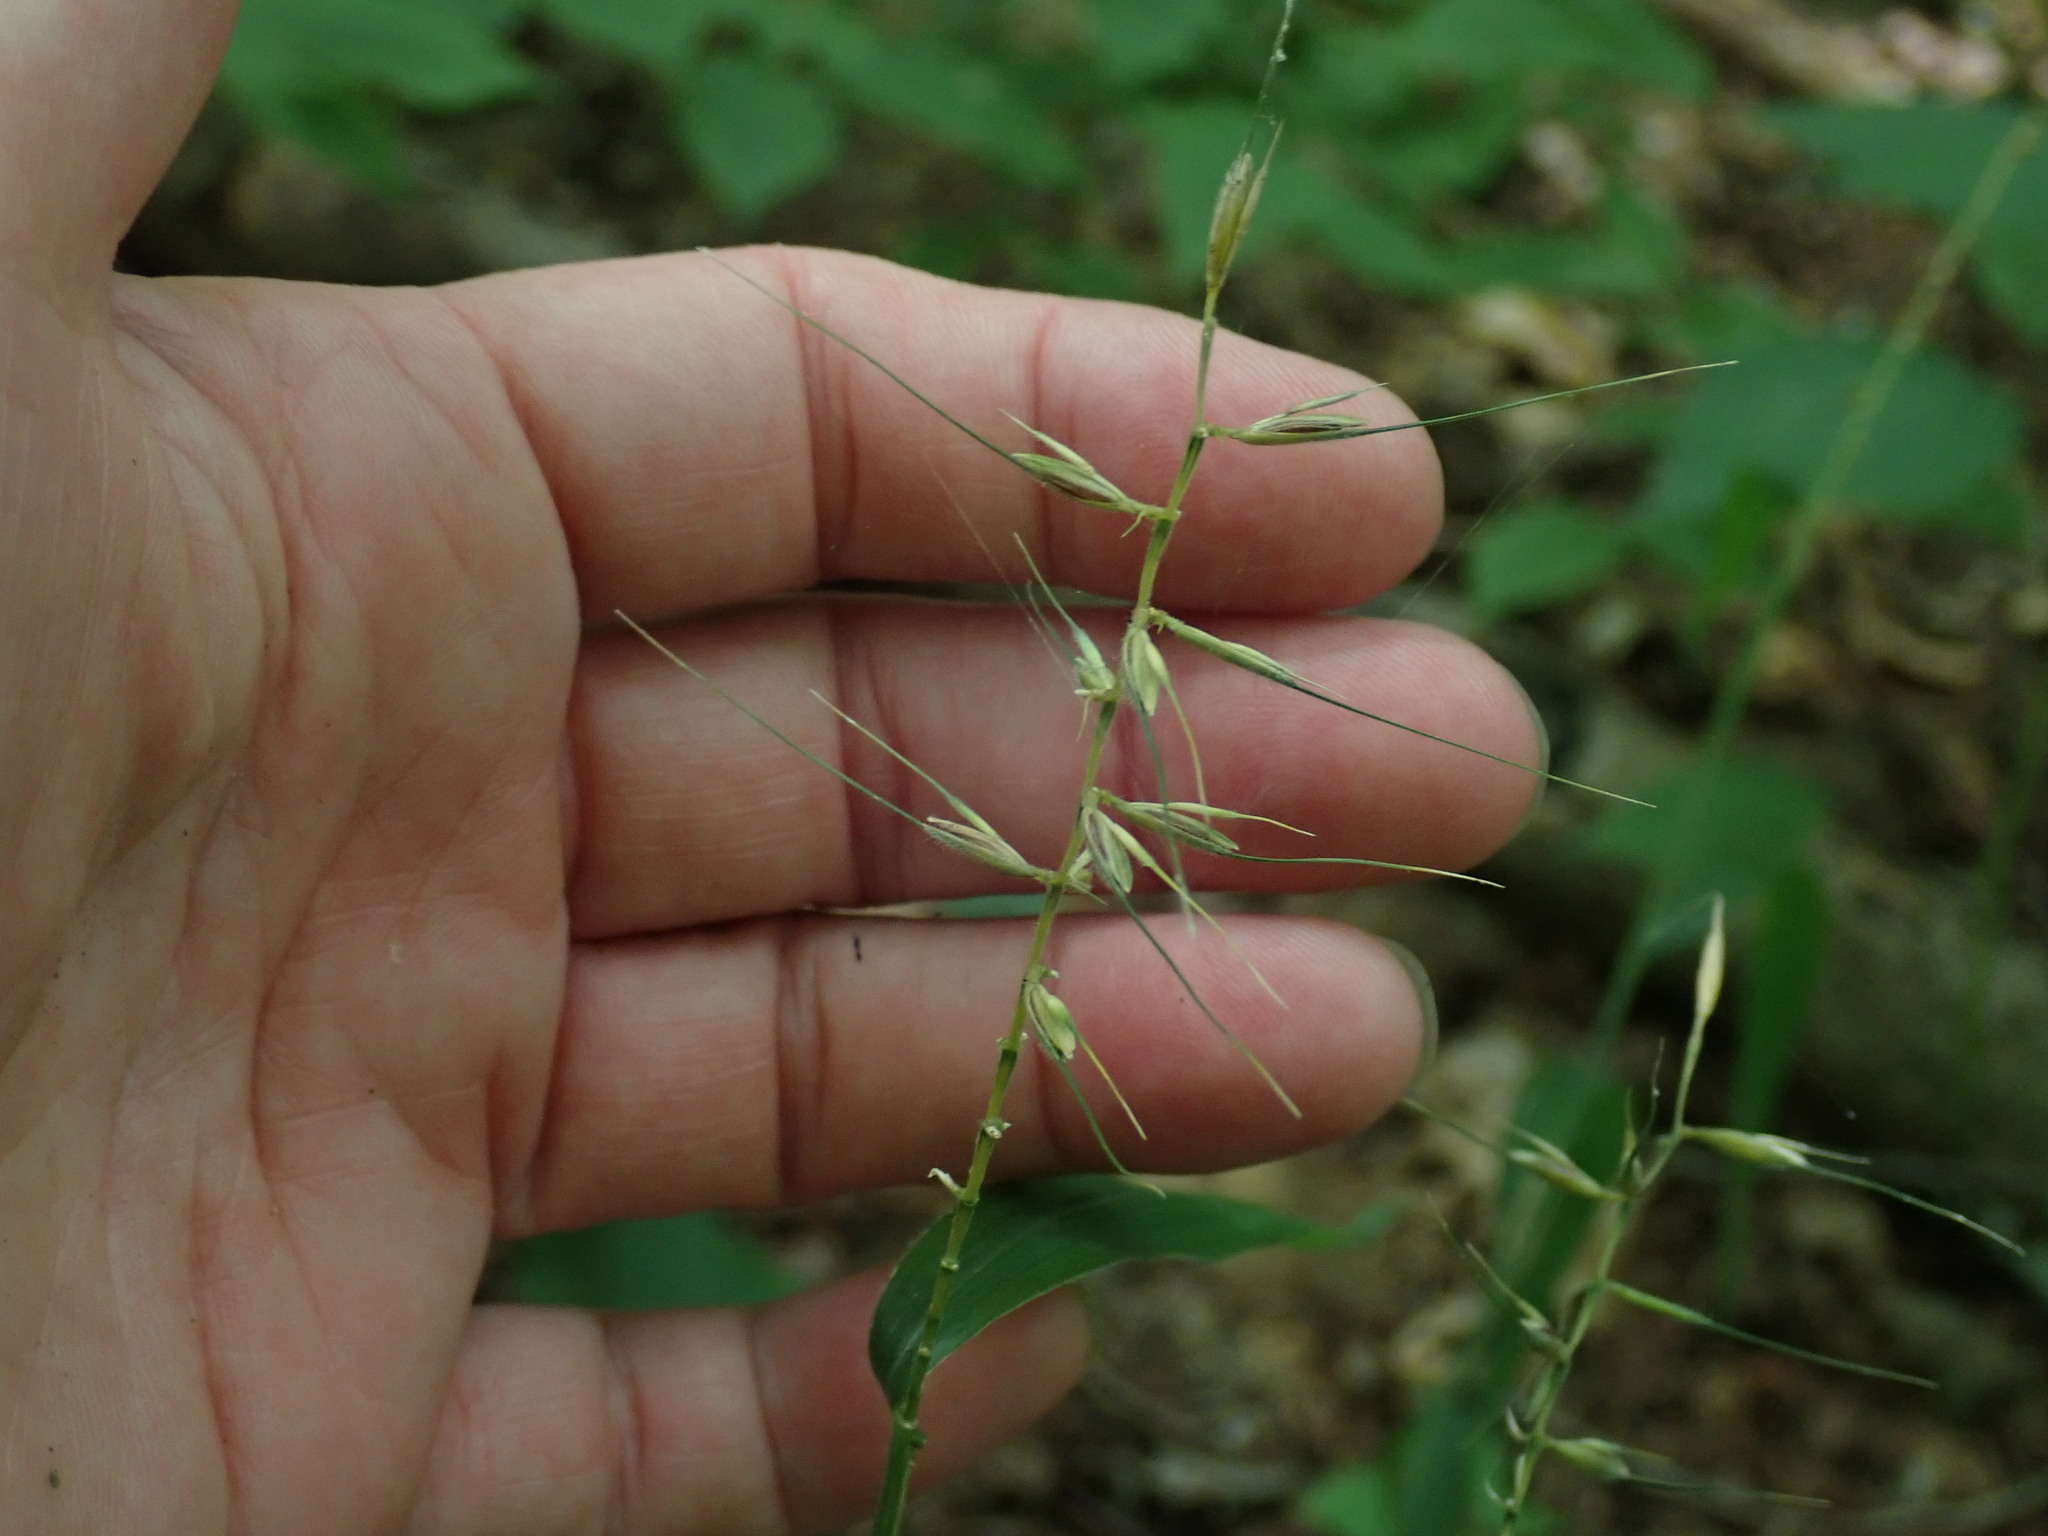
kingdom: Plantae
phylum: Tracheophyta
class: Liliopsida
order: Poales
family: Poaceae
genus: Elymus
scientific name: Elymus hystrix
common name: Bottlebrush grass
